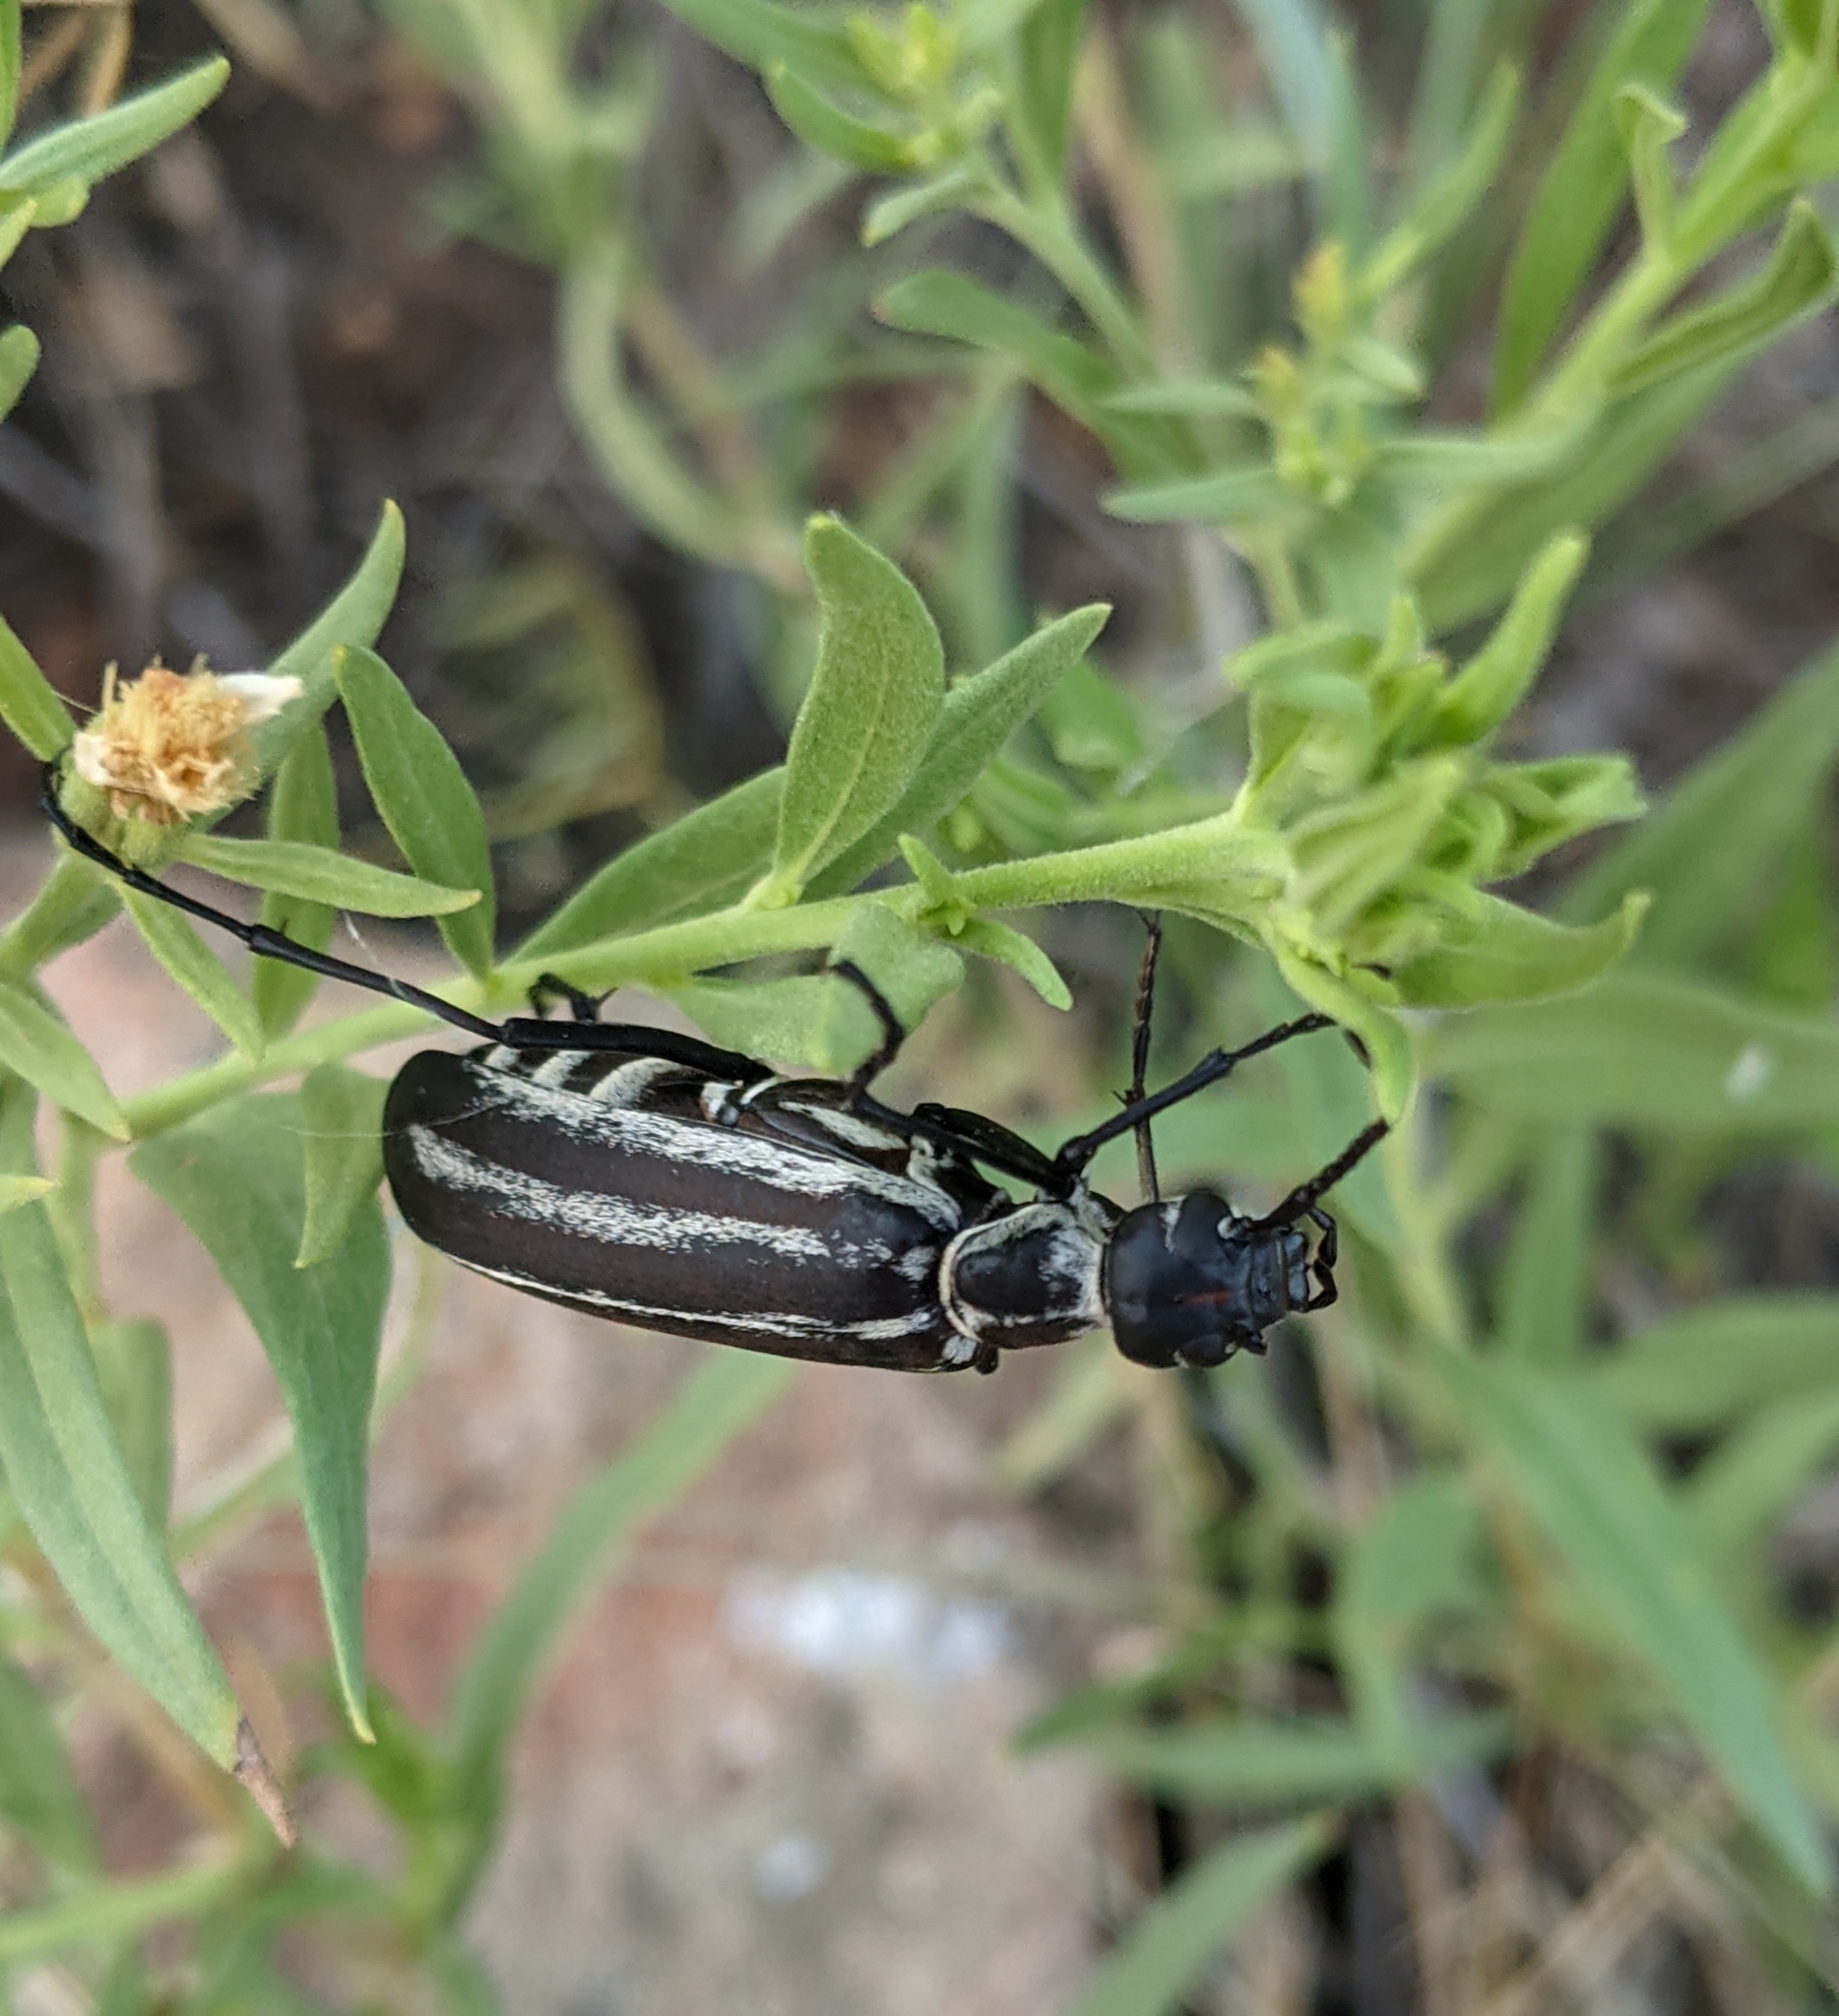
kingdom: Animalia
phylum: Arthropoda
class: Insecta
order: Coleoptera
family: Meloidae
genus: Epicauta
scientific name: Epicauta atrivittata
